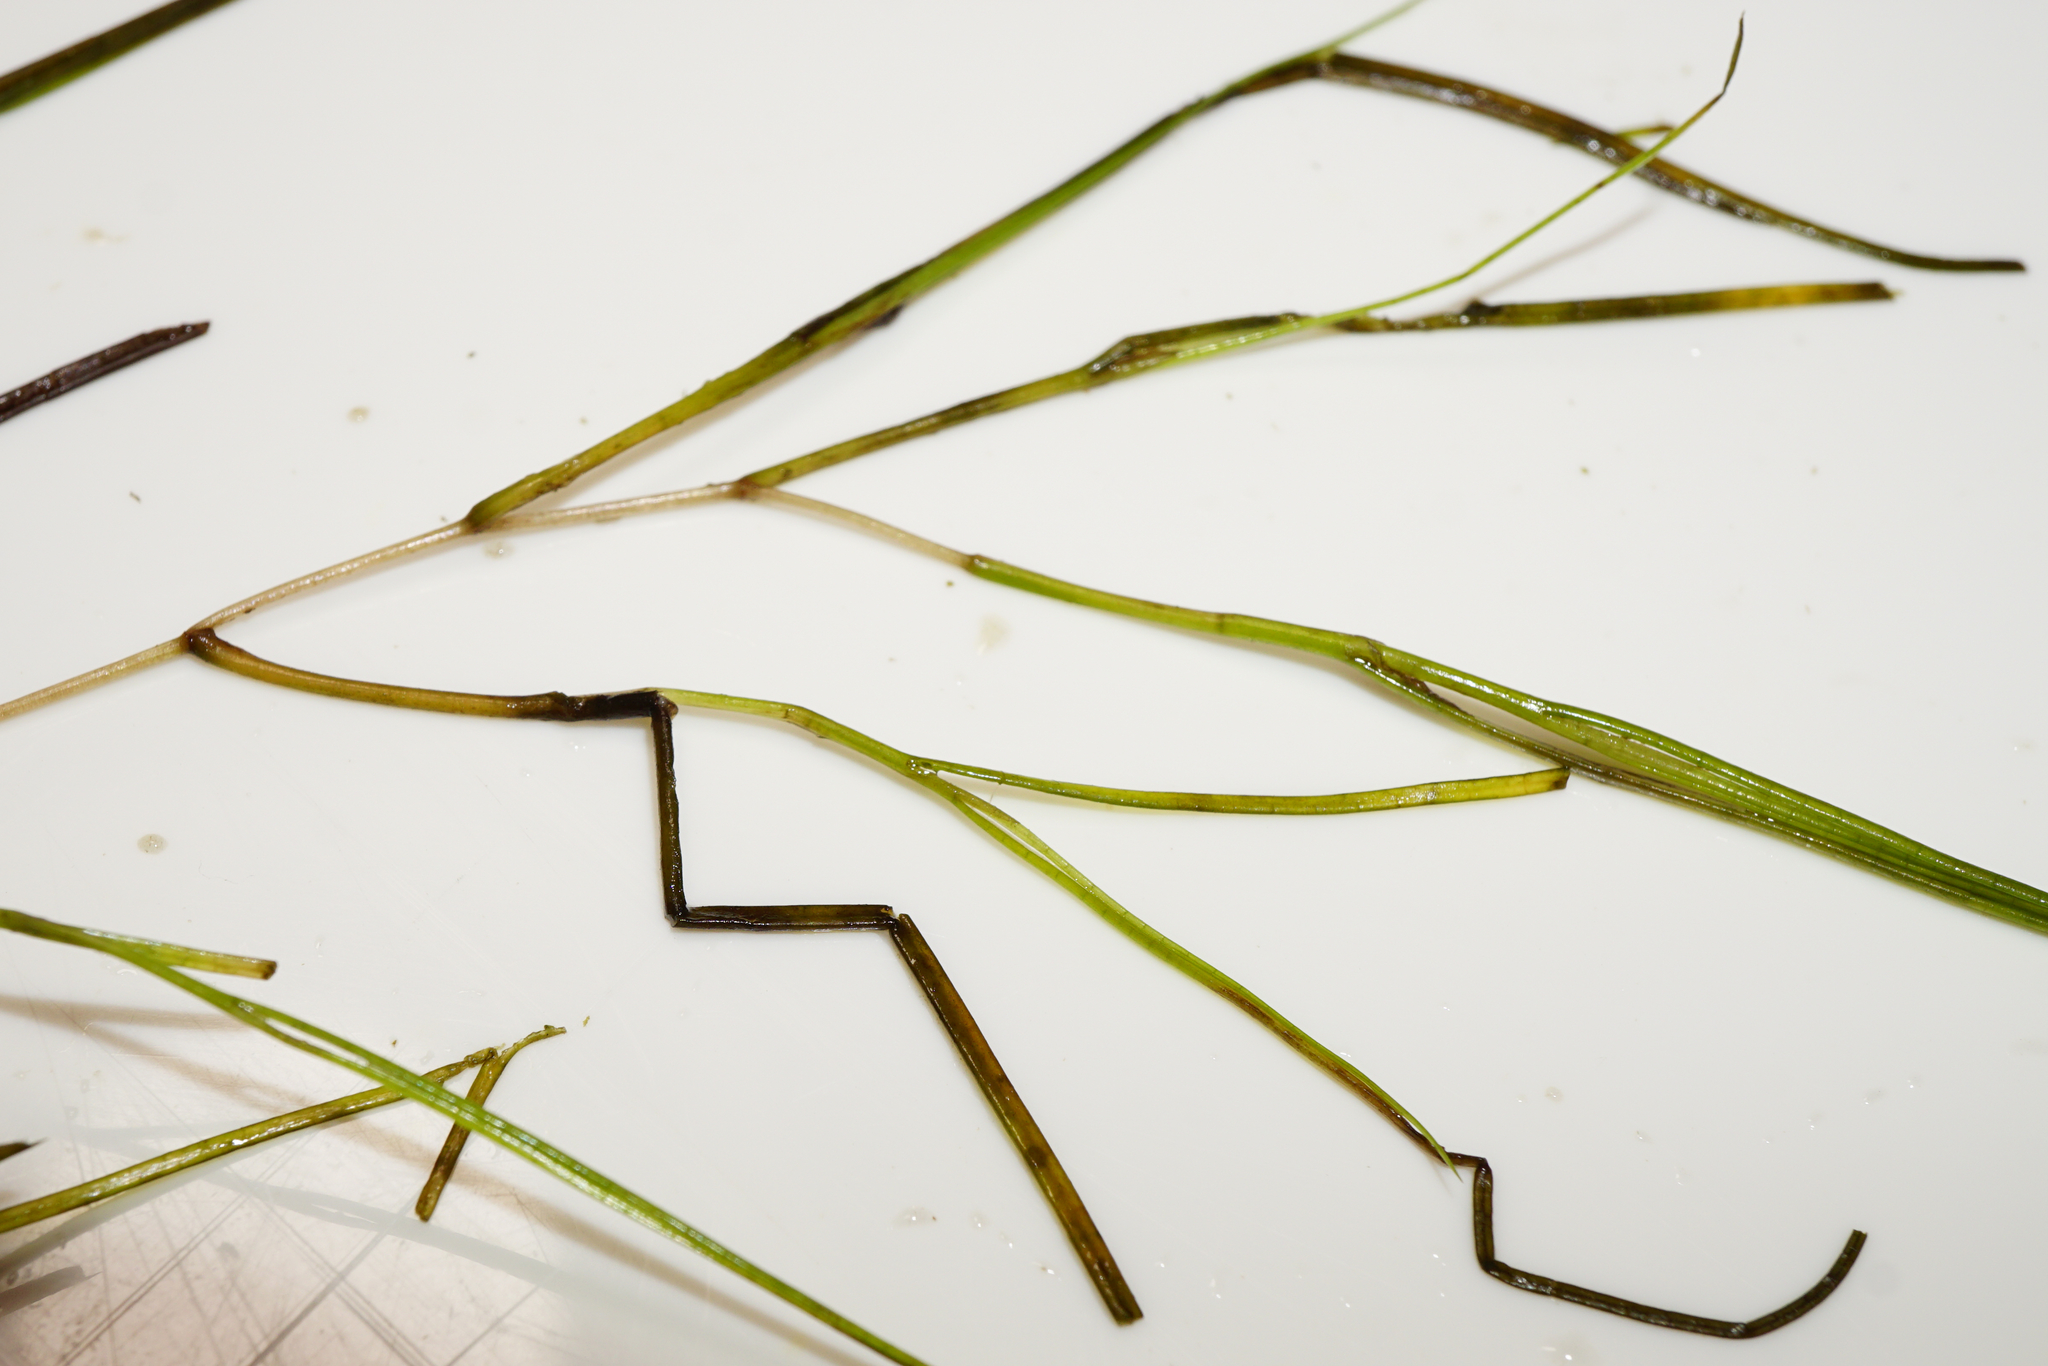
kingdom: Plantae
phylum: Tracheophyta
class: Liliopsida
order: Alismatales
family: Potamogetonaceae
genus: Stuckenia
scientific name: Stuckenia pectinata
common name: Sago pondweed
